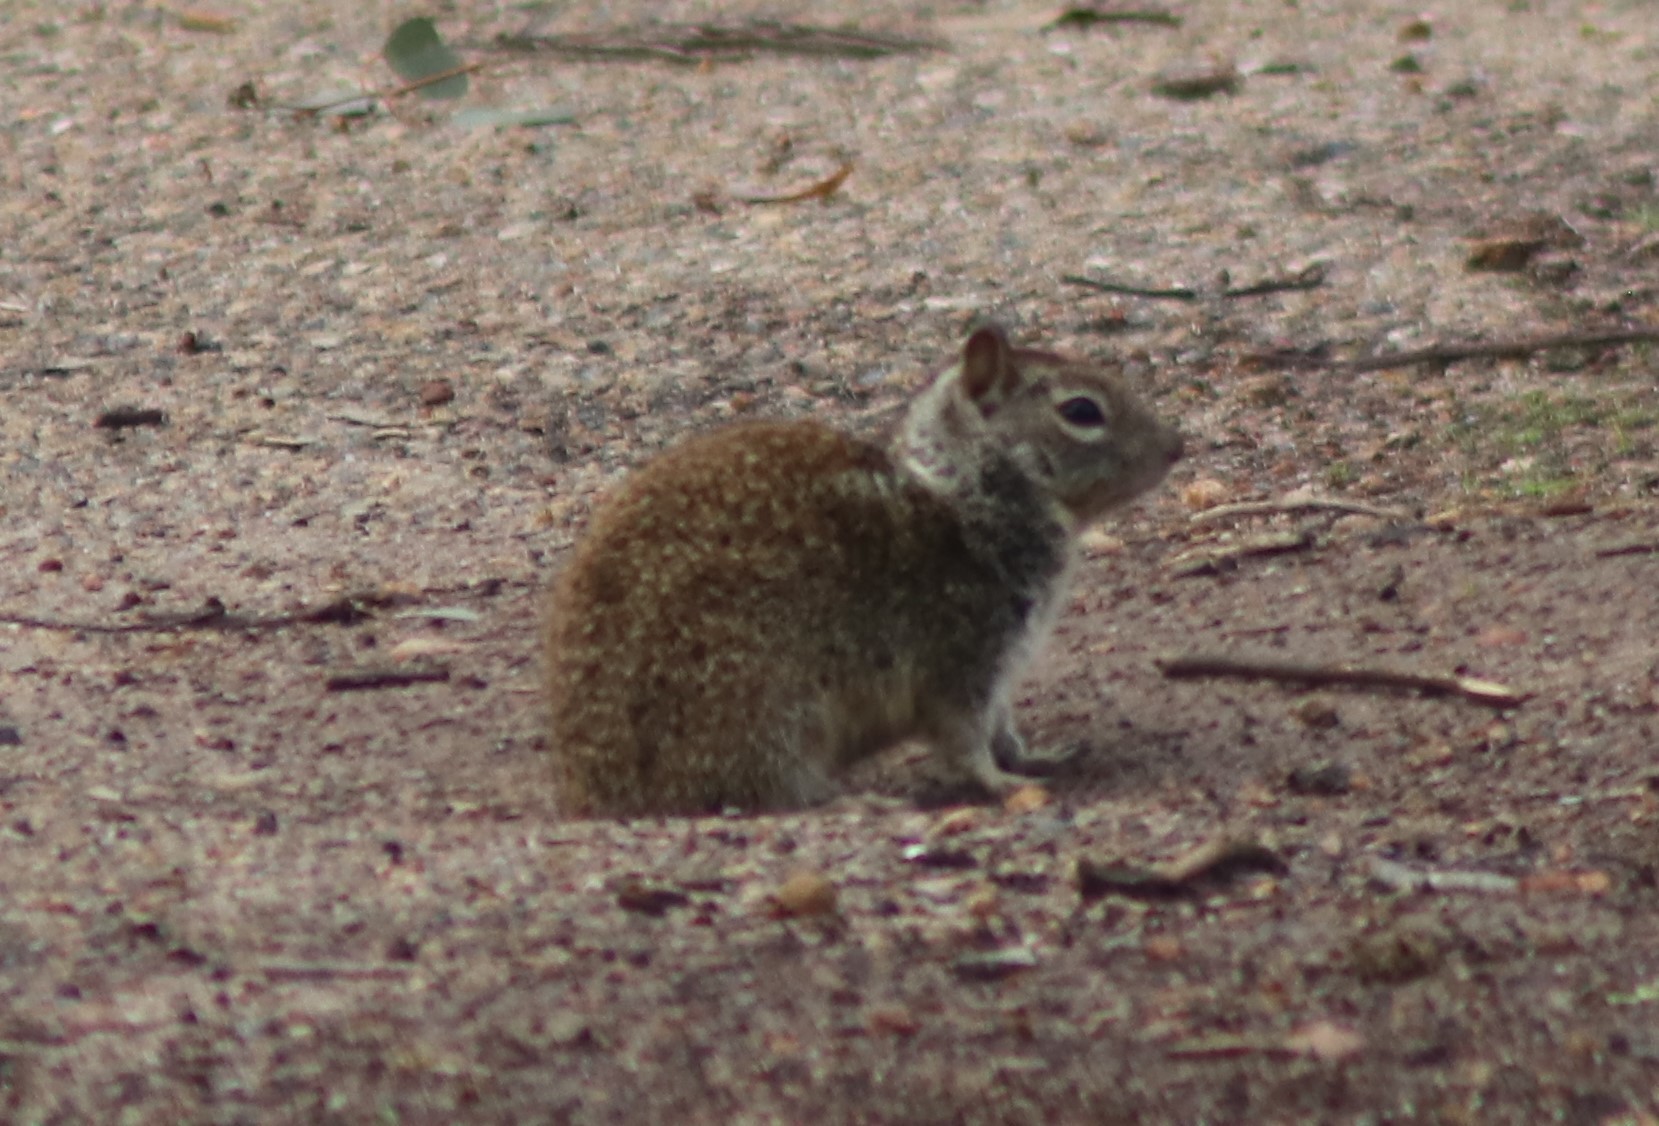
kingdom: Animalia
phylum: Chordata
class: Mammalia
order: Rodentia
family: Sciuridae
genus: Otospermophilus
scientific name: Otospermophilus beecheyi
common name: California ground squirrel
